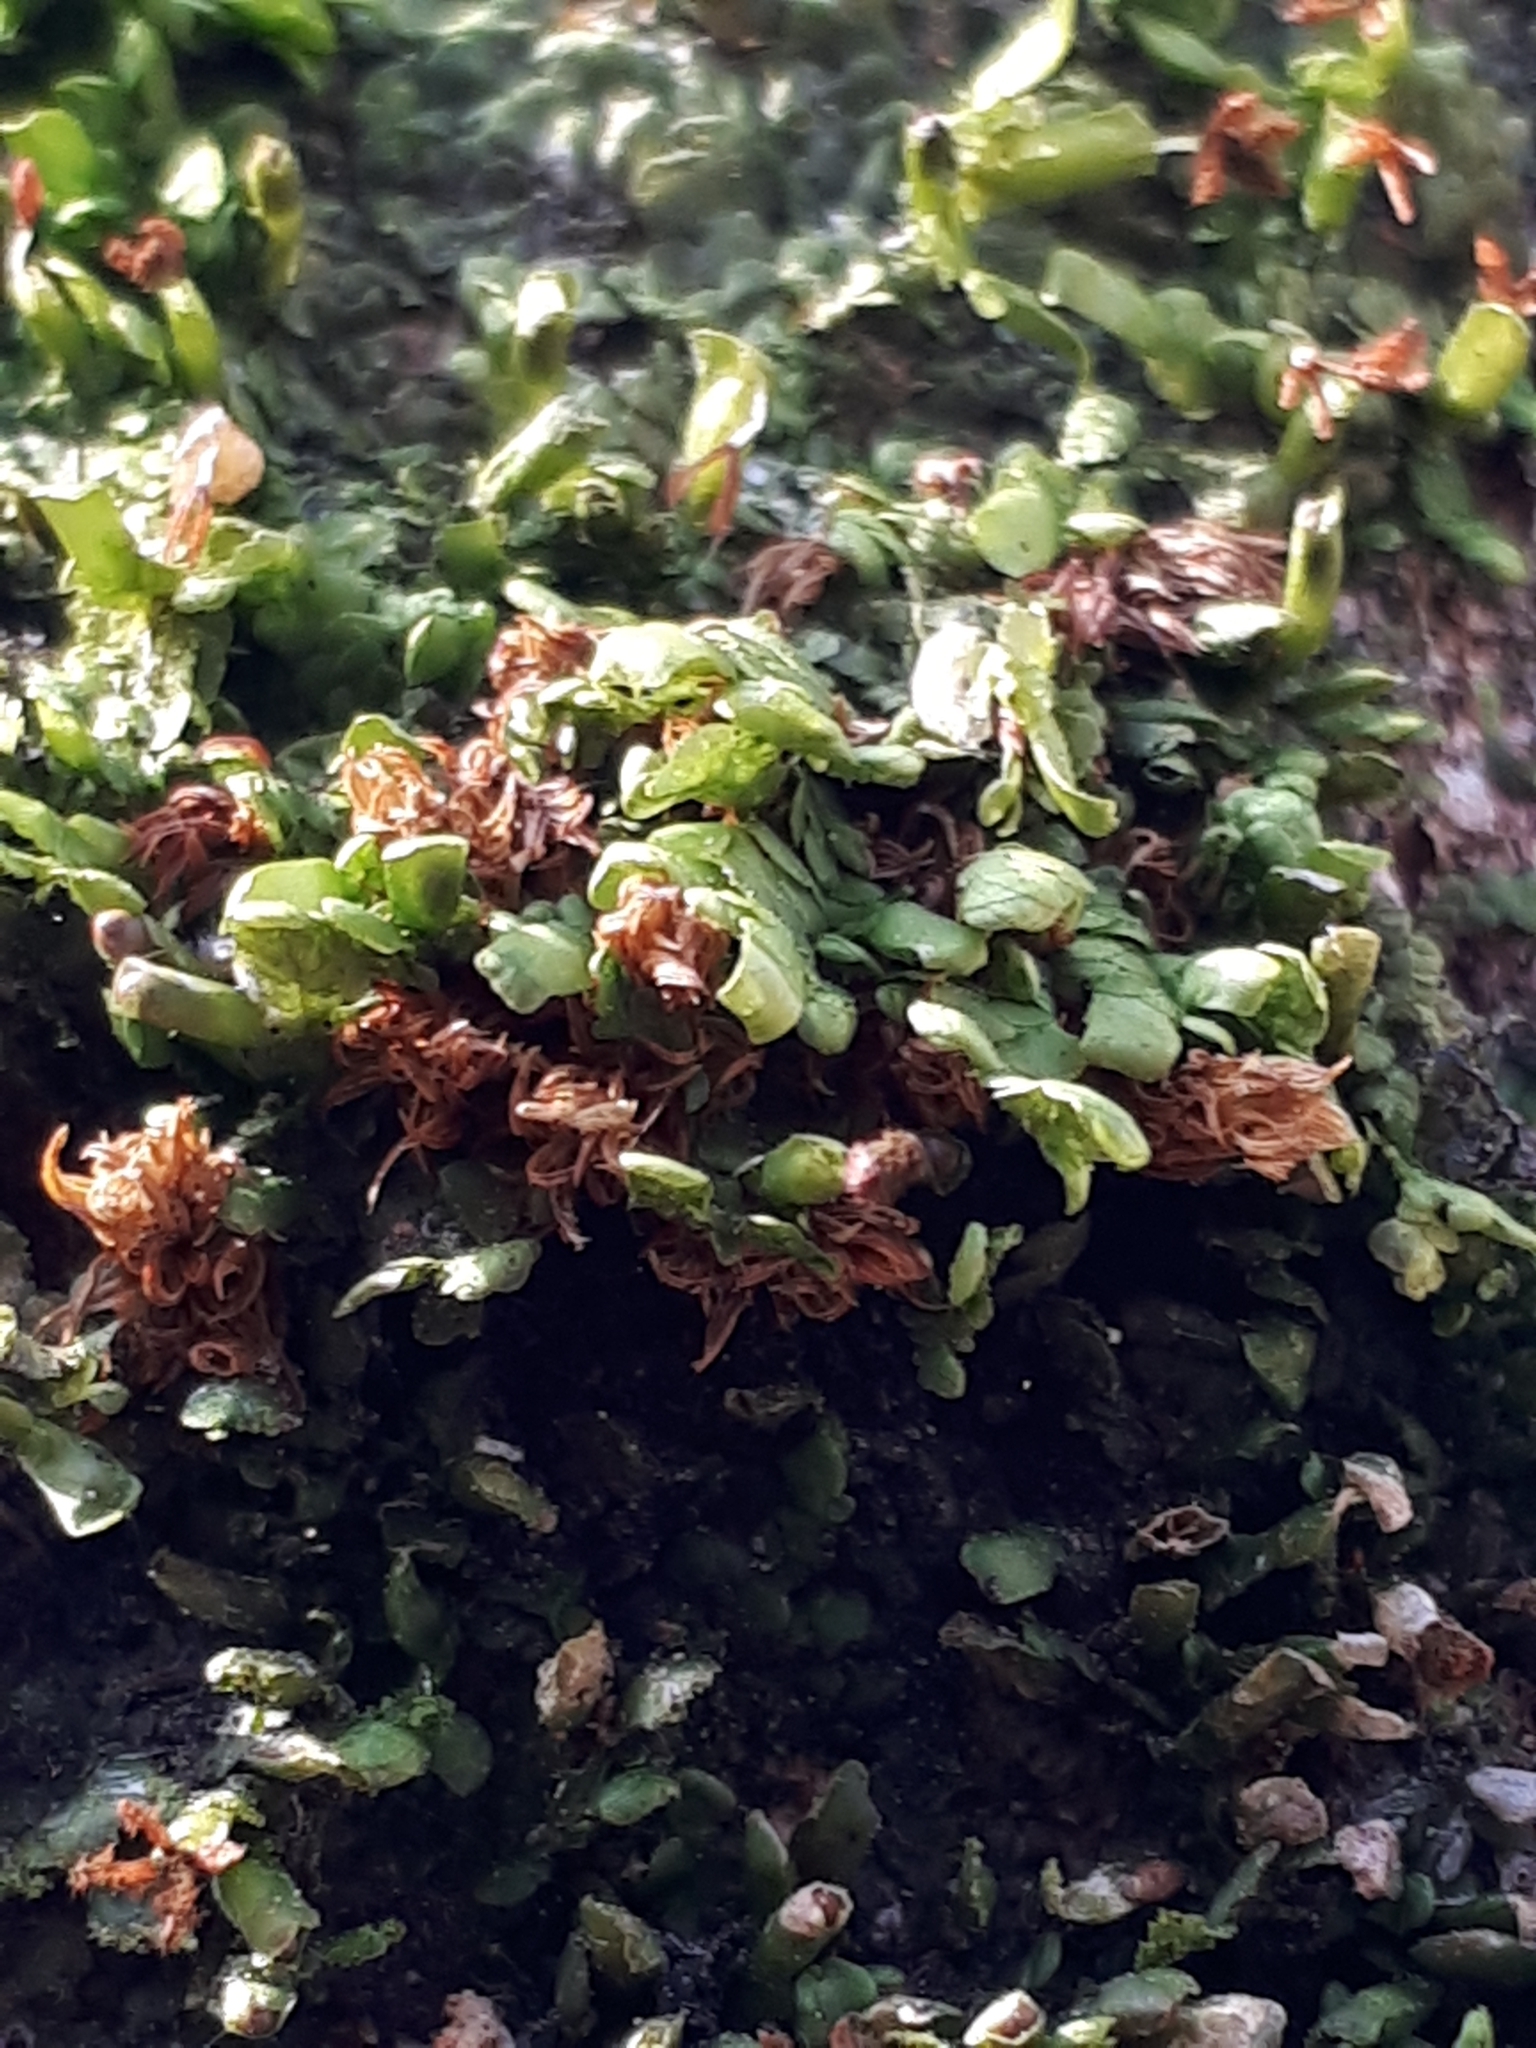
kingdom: Plantae
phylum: Marchantiophyta
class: Jungermanniopsida
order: Porellales
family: Radulaceae
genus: Radula
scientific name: Radula complanata
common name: Flat-leaved scalewort
